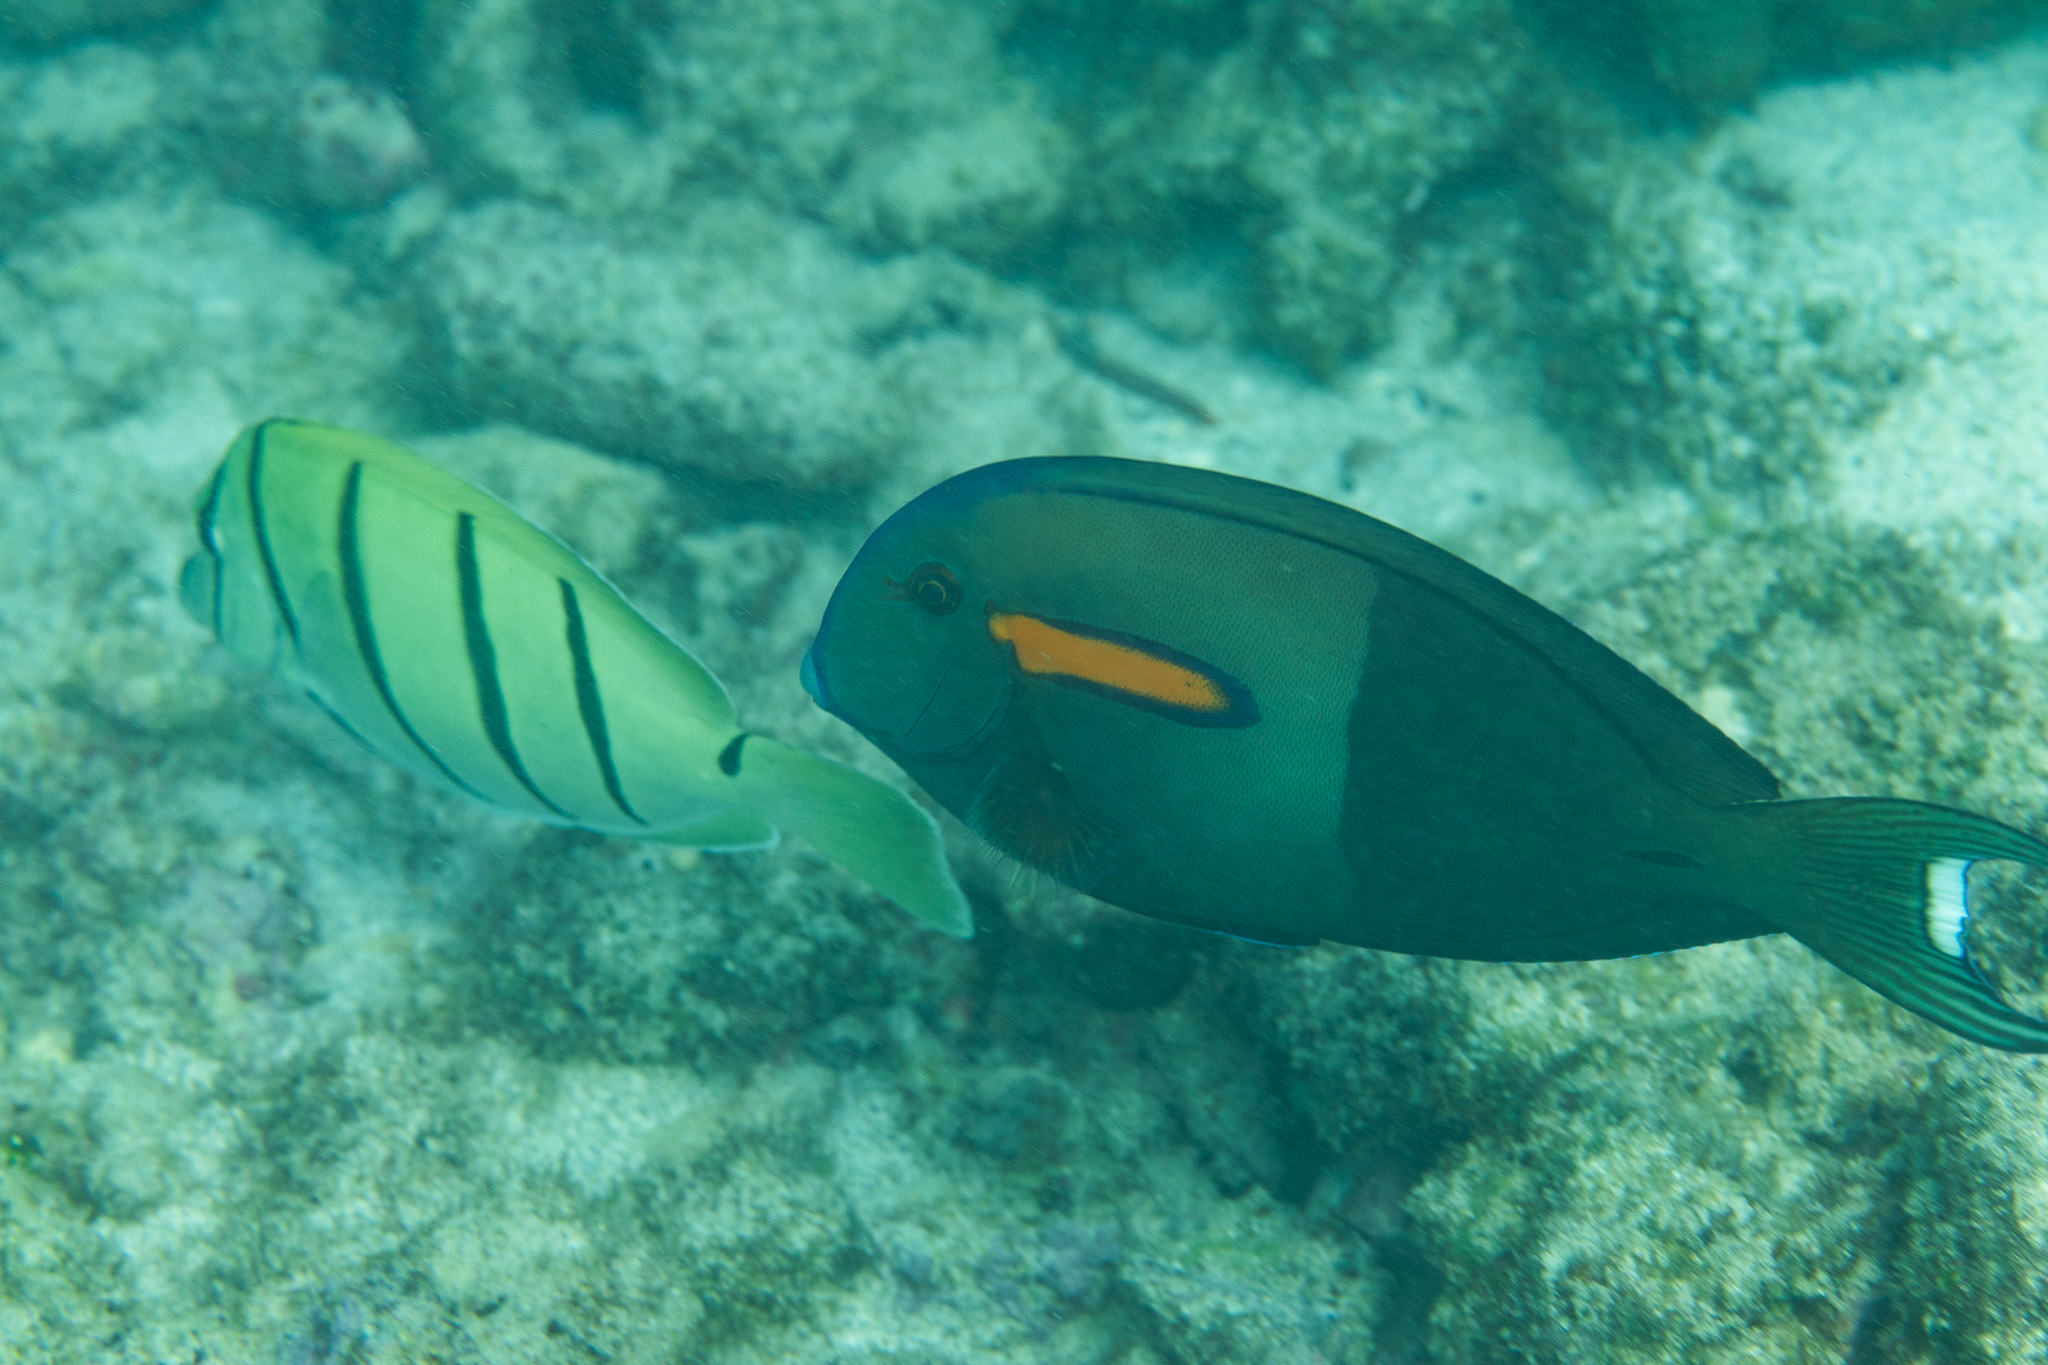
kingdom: Animalia
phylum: Chordata
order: Perciformes
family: Acanthuridae
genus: Acanthurus
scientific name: Acanthurus olivaceus
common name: Gendarme fish
